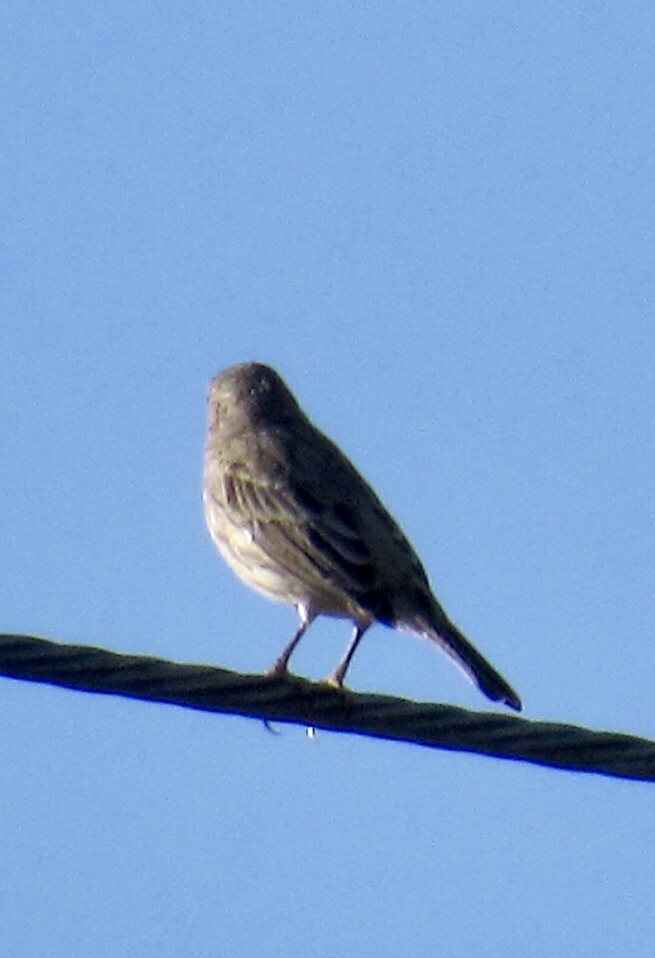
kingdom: Animalia
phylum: Chordata
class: Aves
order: Passeriformes
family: Fringillidae
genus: Haemorhous
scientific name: Haemorhous mexicanus
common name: House finch
